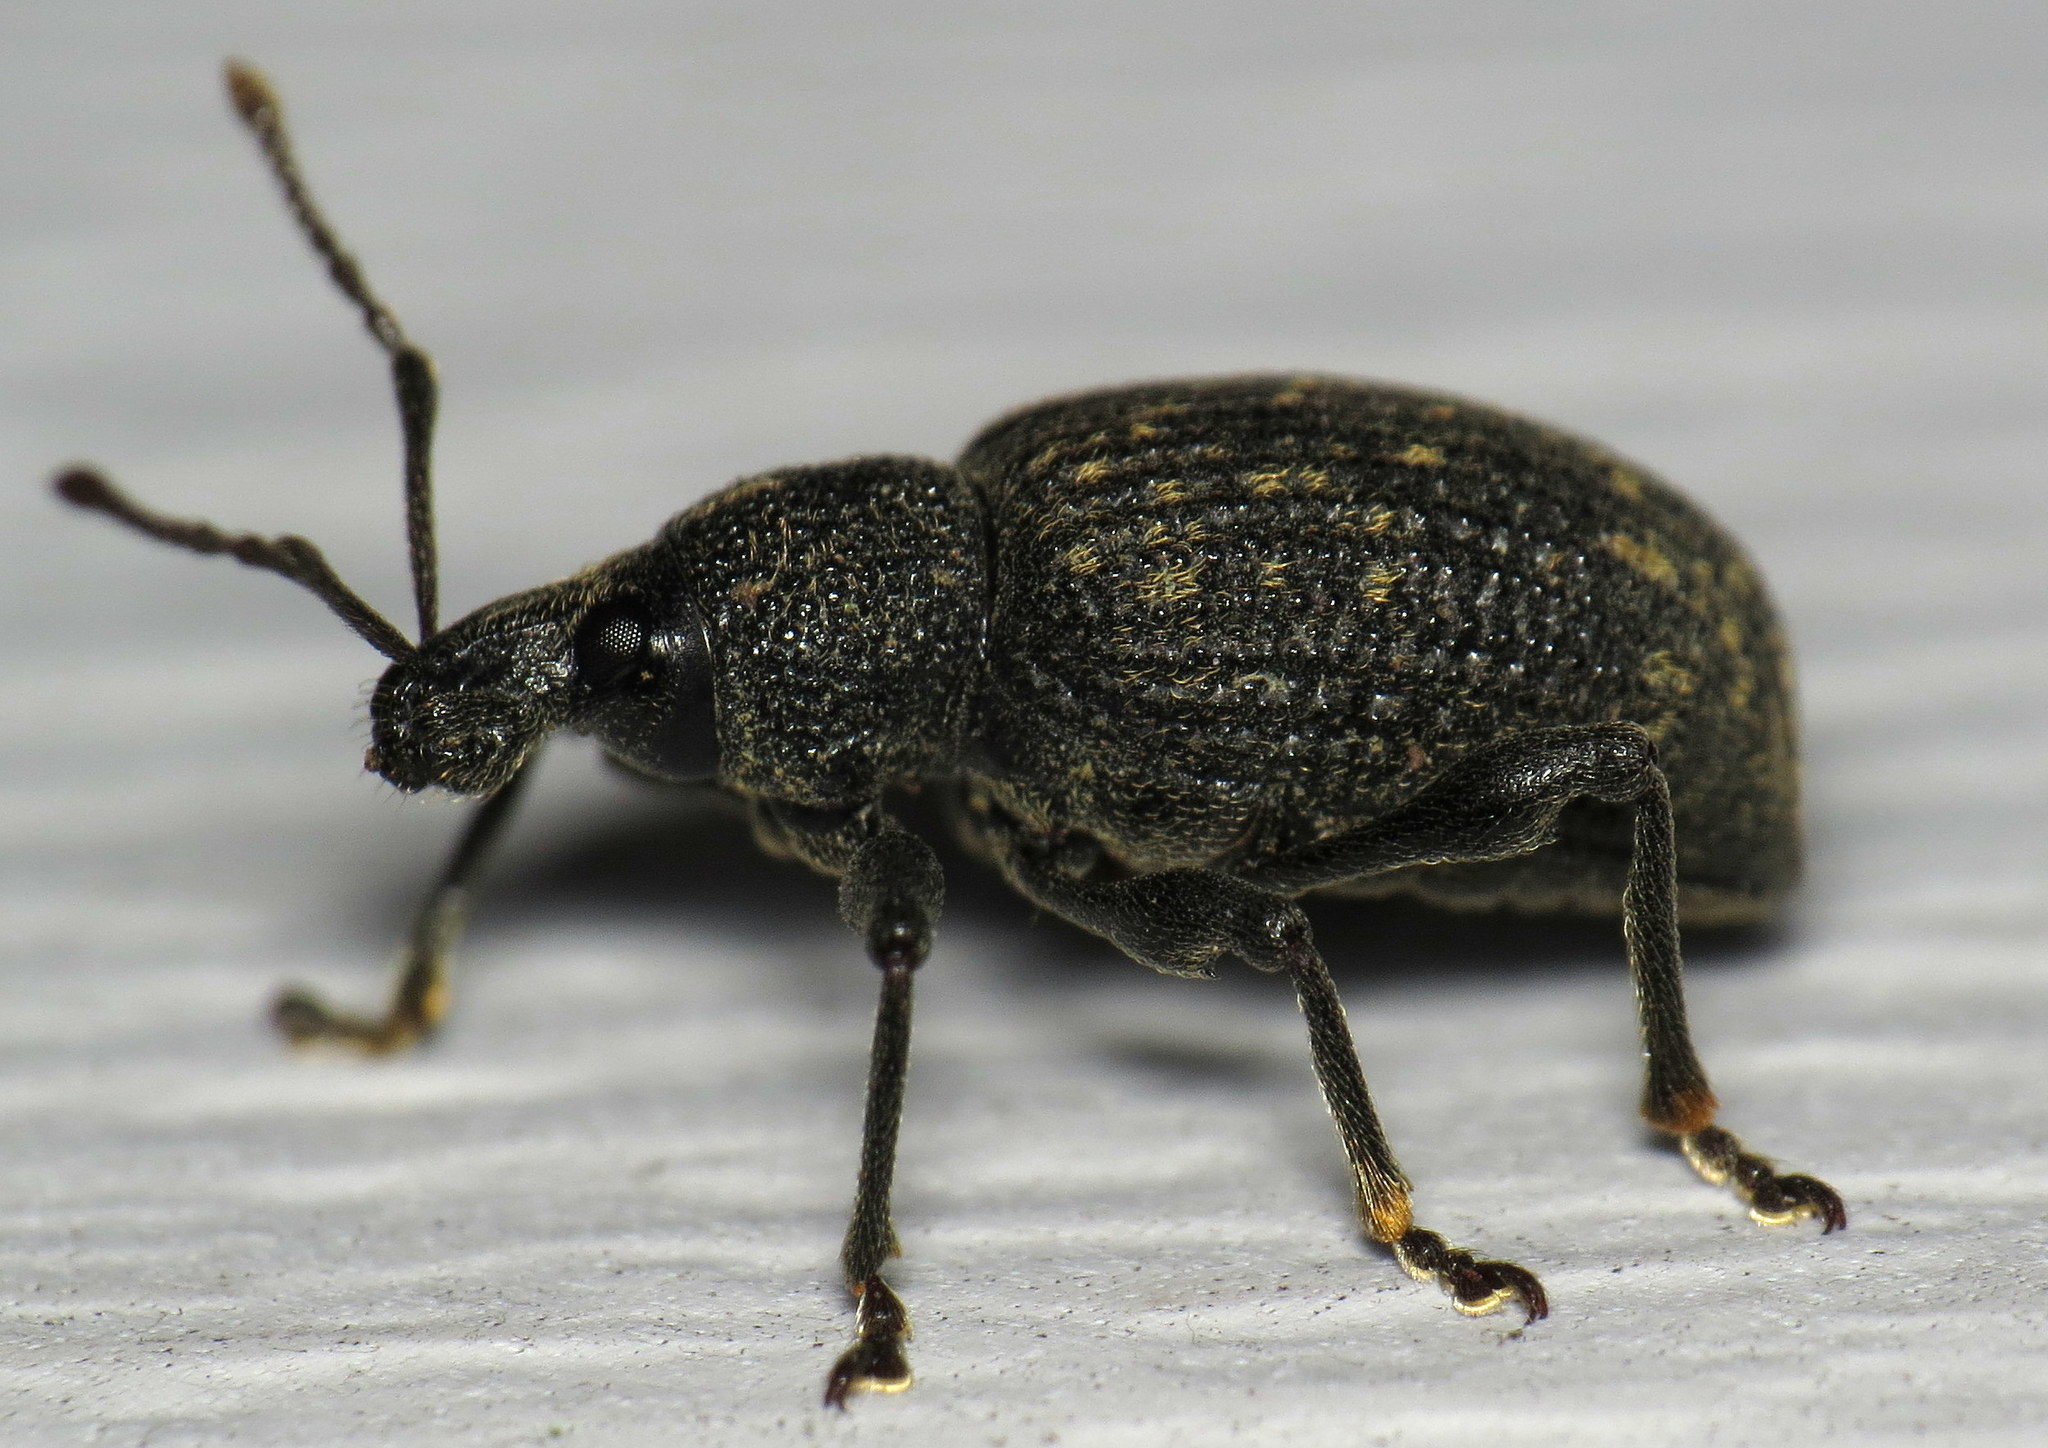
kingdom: Animalia
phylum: Arthropoda
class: Insecta
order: Coleoptera
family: Curculionidae
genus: Otiorhynchus
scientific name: Otiorhynchus sulcatus
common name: Black vine weevil
